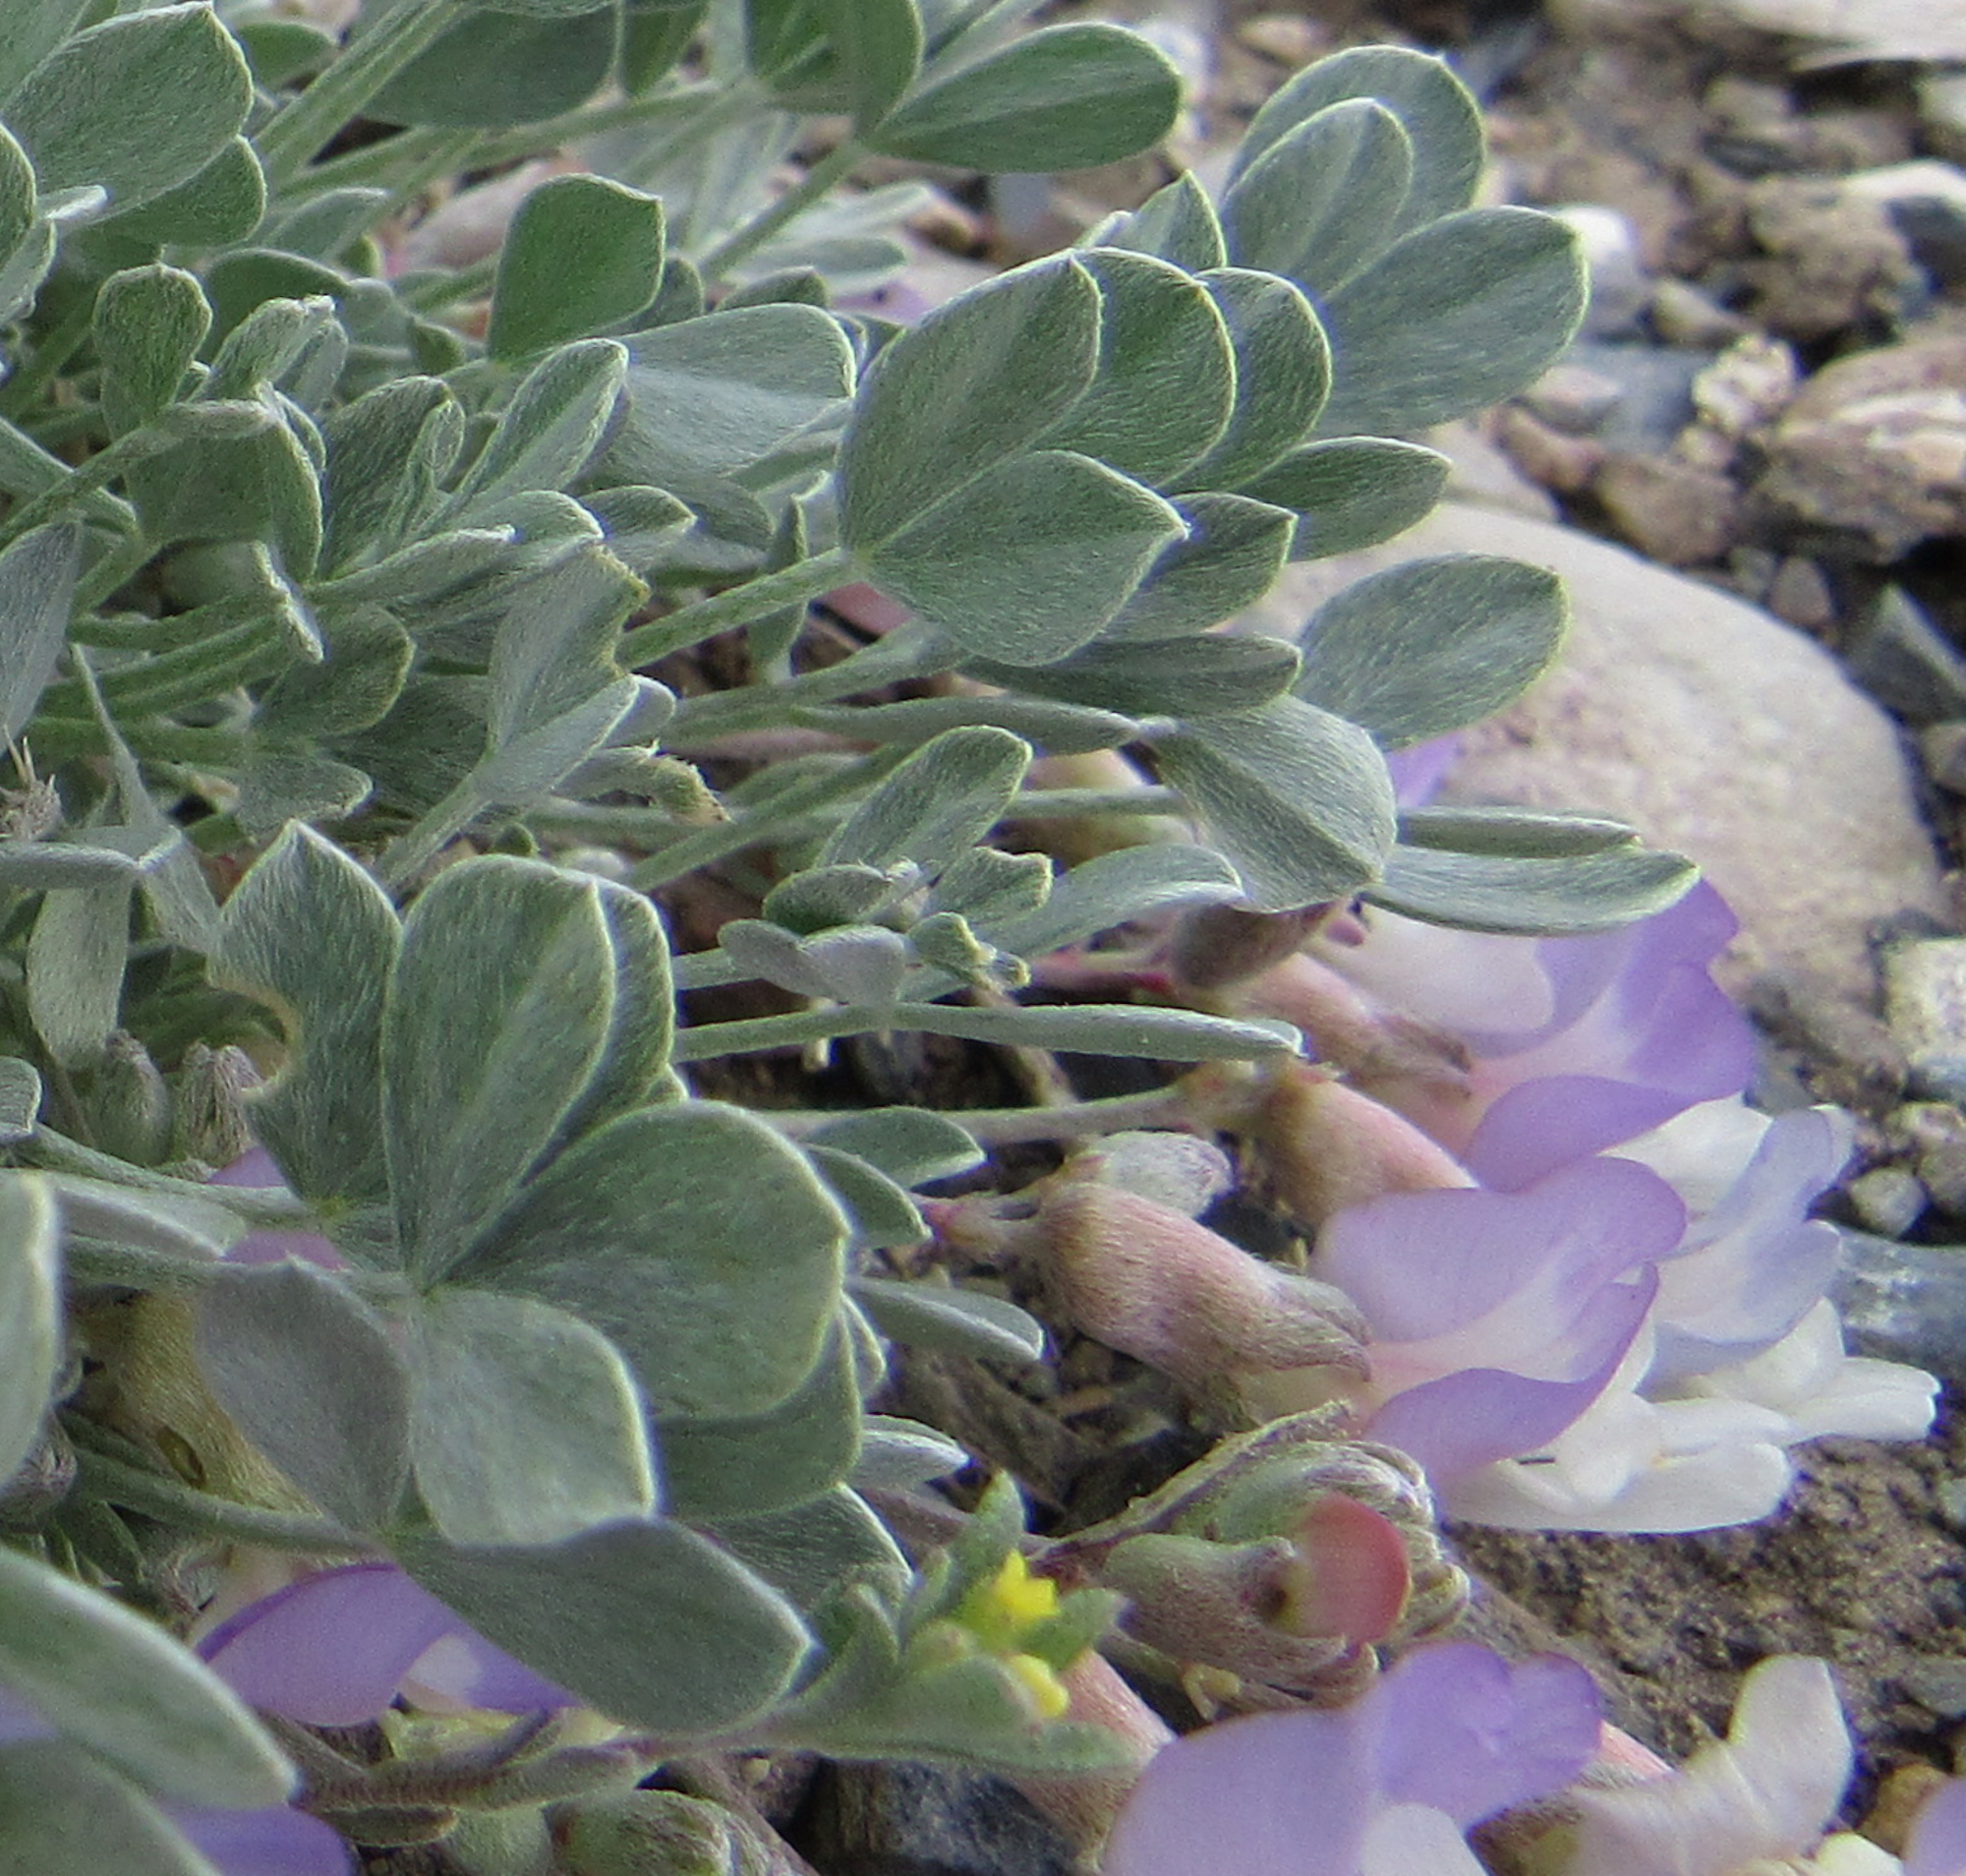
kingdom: Plantae
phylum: Tracheophyta
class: Magnoliopsida
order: Fabales
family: Fabaceae
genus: Astragalus
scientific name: Astragalus calycosus
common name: King's milkvetch
